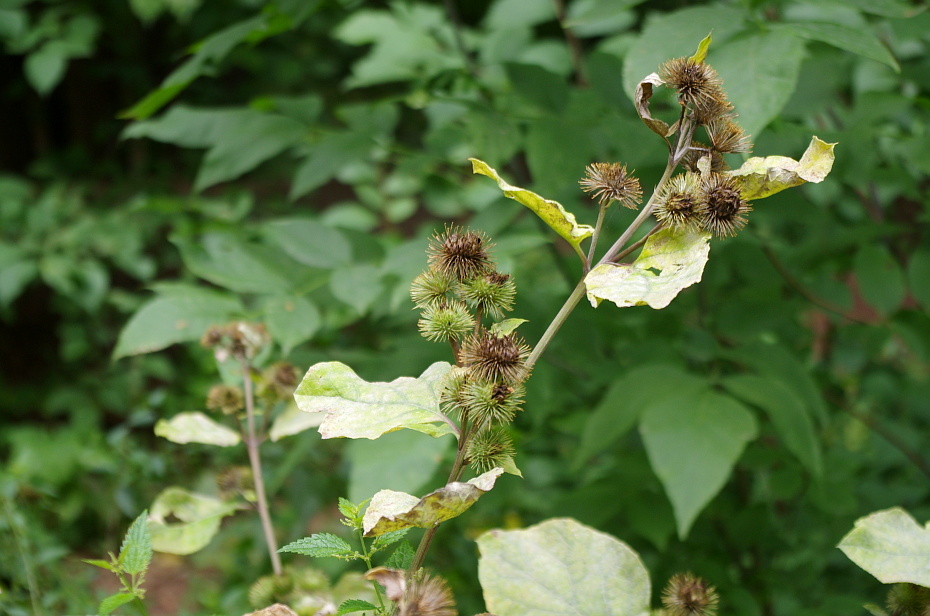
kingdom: Plantae
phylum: Tracheophyta
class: Magnoliopsida
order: Asterales
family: Asteraceae
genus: Arctium
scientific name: Arctium lappa
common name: Greater burdock
